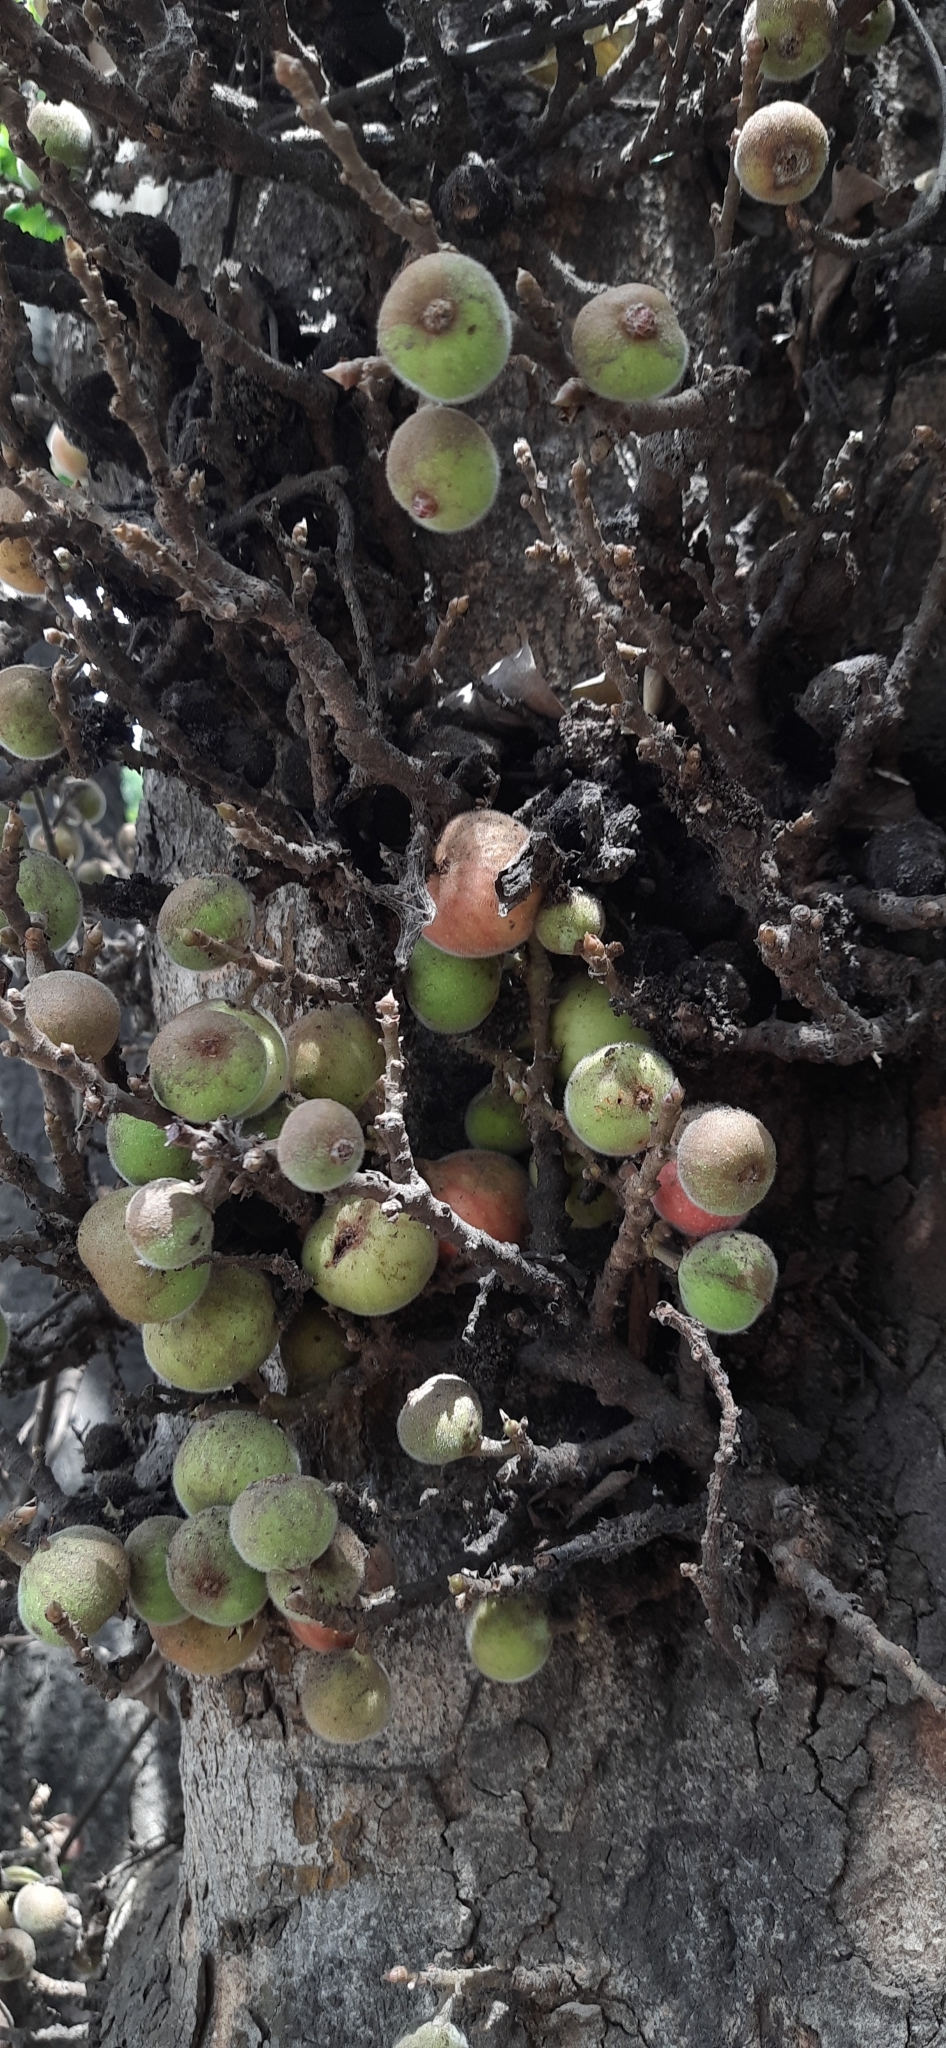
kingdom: Plantae
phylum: Tracheophyta
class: Magnoliopsida
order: Rosales
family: Moraceae
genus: Ficus
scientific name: Ficus racemosa
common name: Cluster fig
